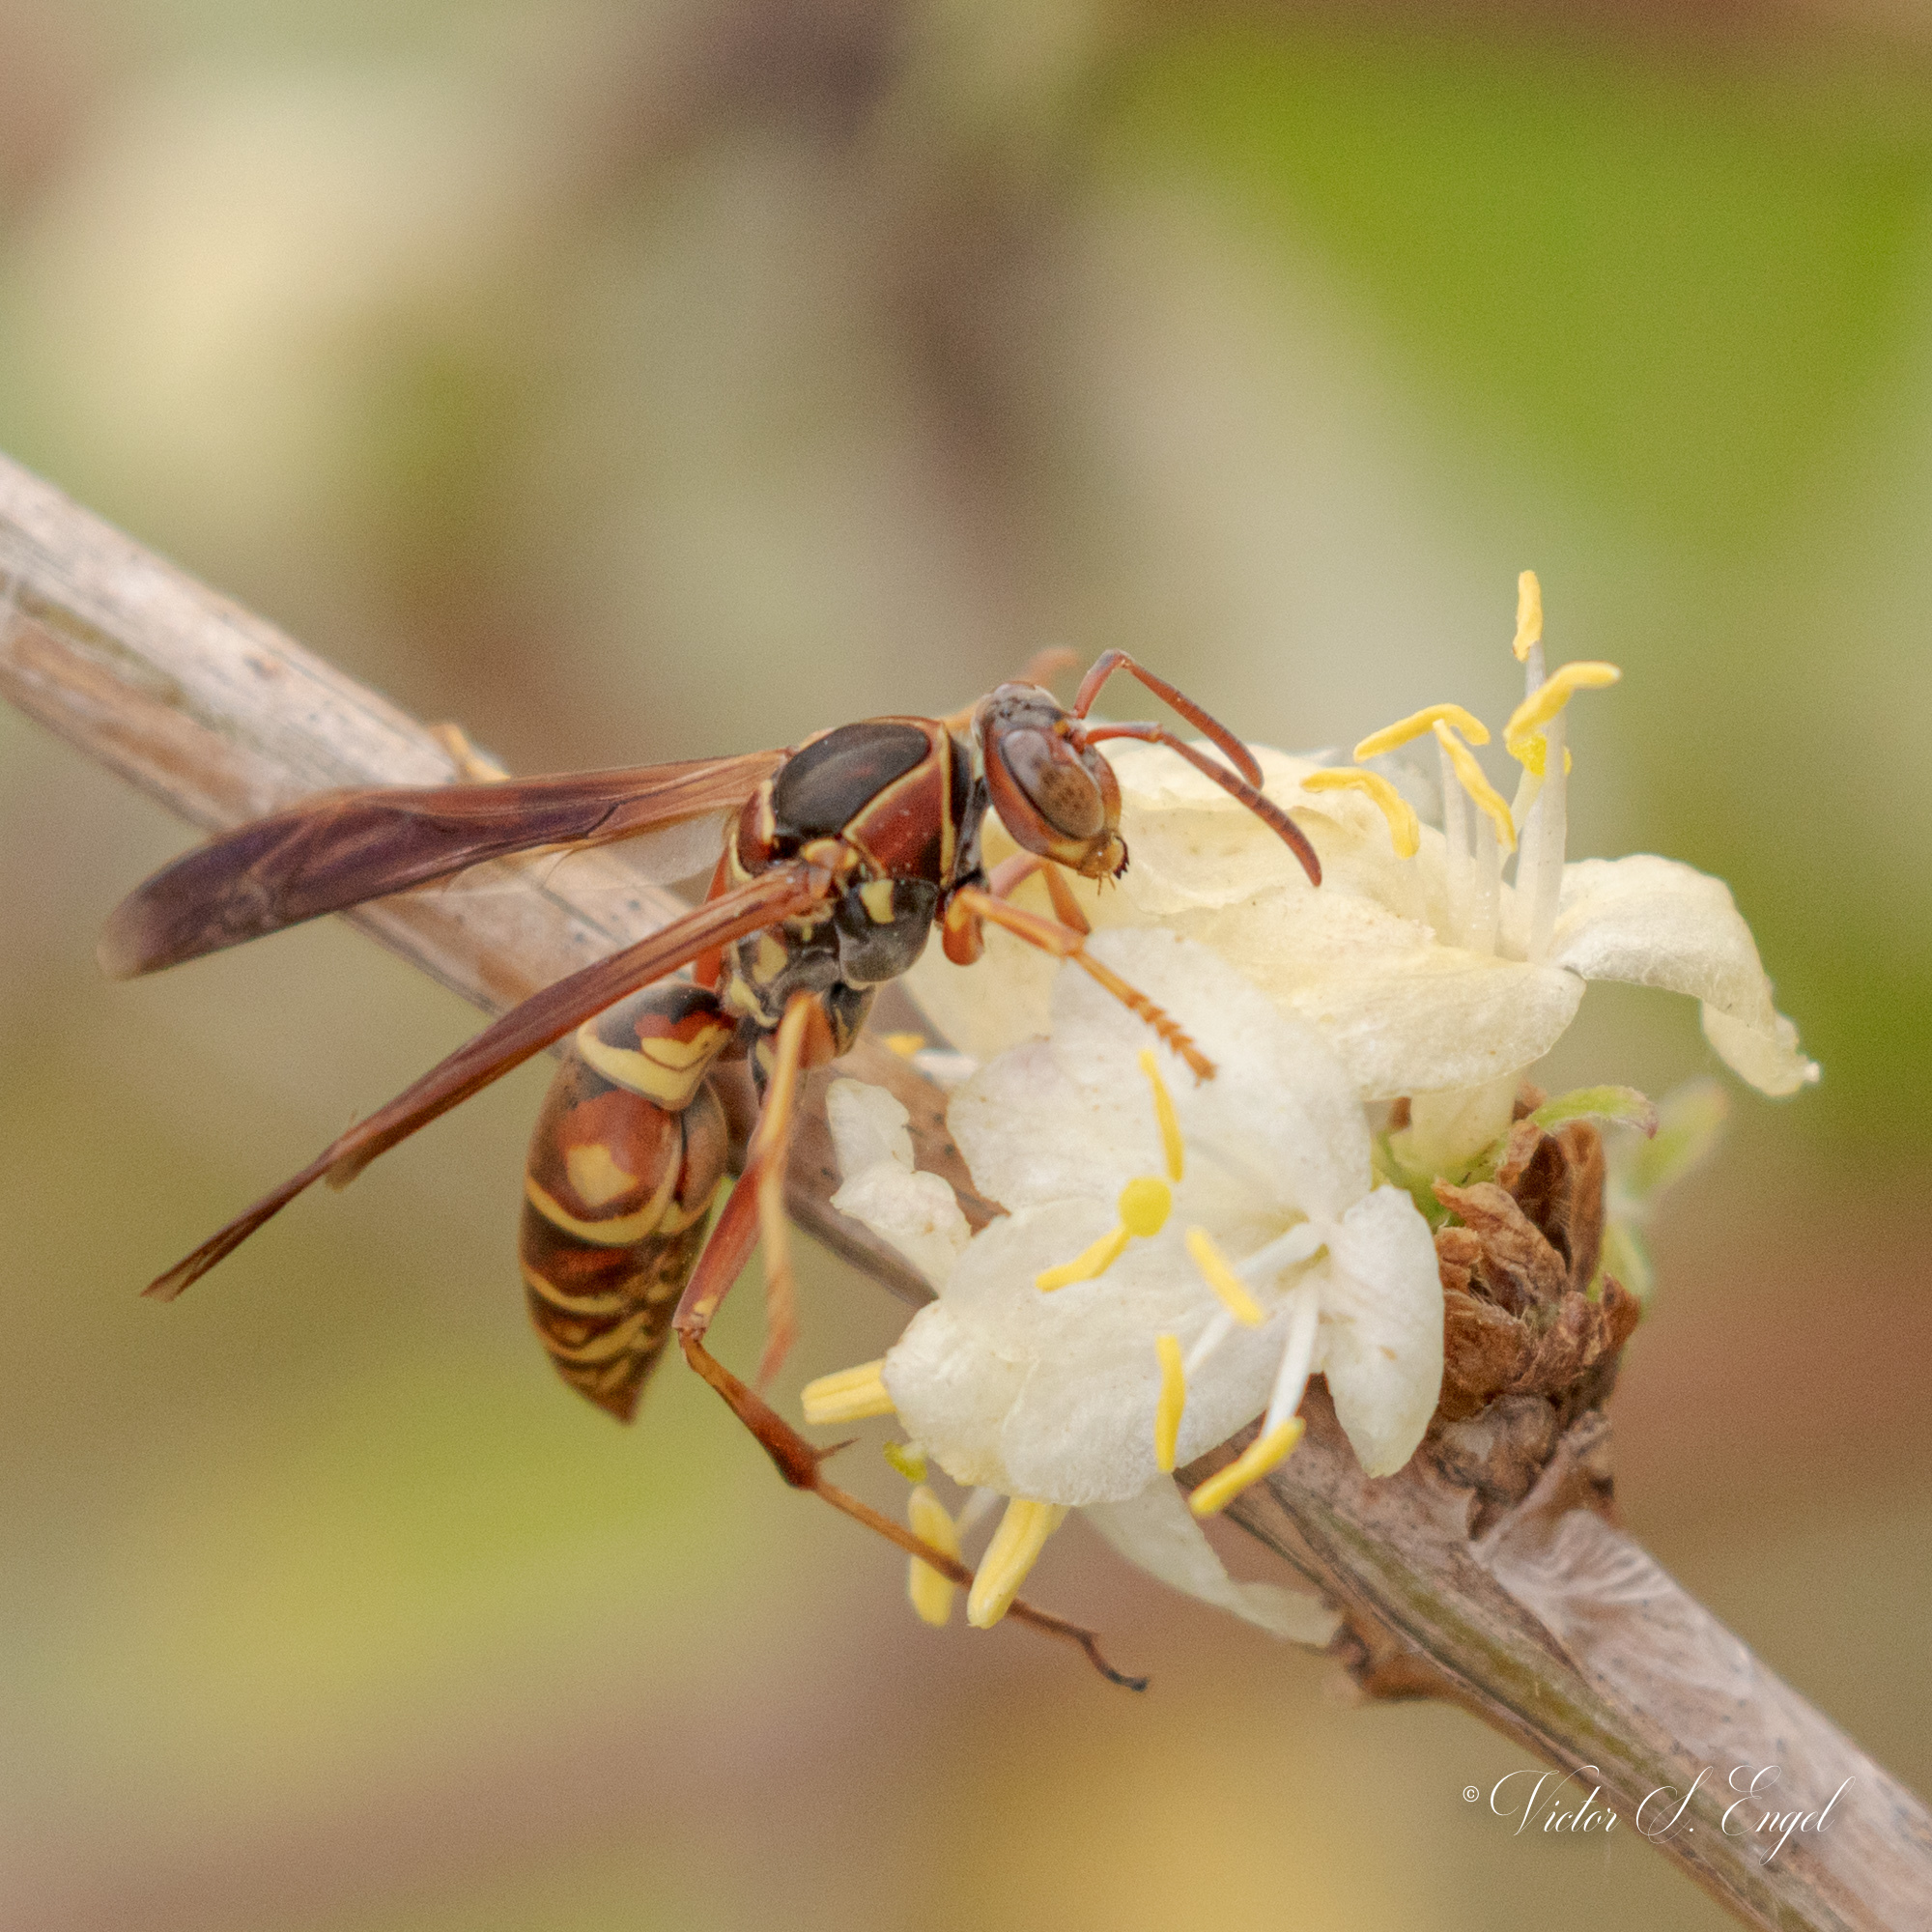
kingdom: Animalia
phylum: Arthropoda
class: Insecta
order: Hymenoptera
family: Eumenidae
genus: Polistes
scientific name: Polistes fuscatus
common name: Dark paper wasp
